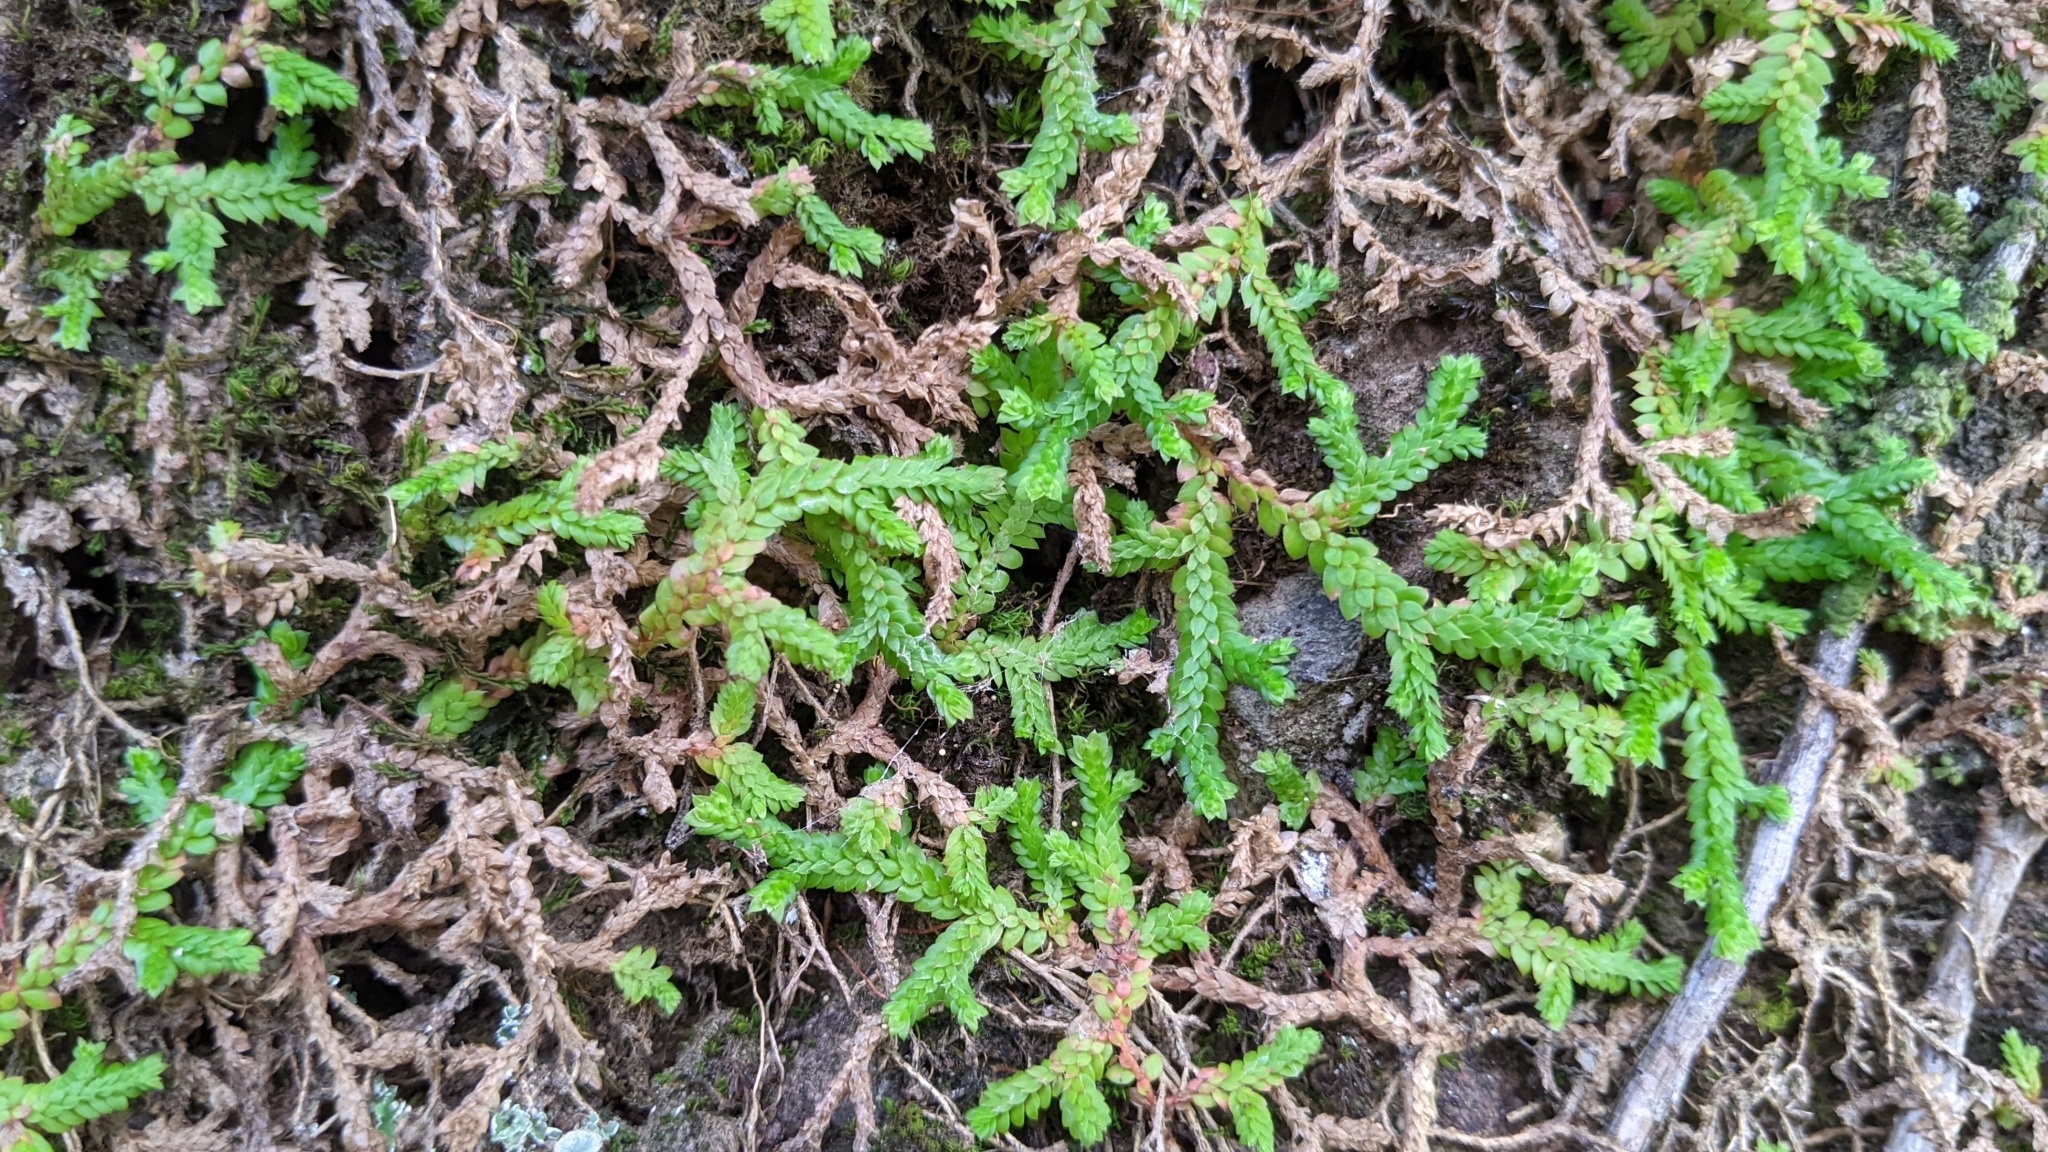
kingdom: Plantae
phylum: Tracheophyta
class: Lycopodiopsida
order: Selaginellales
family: Selaginellaceae
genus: Selaginella
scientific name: Selaginella denticulata
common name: Toothed-leaved clubmoss
